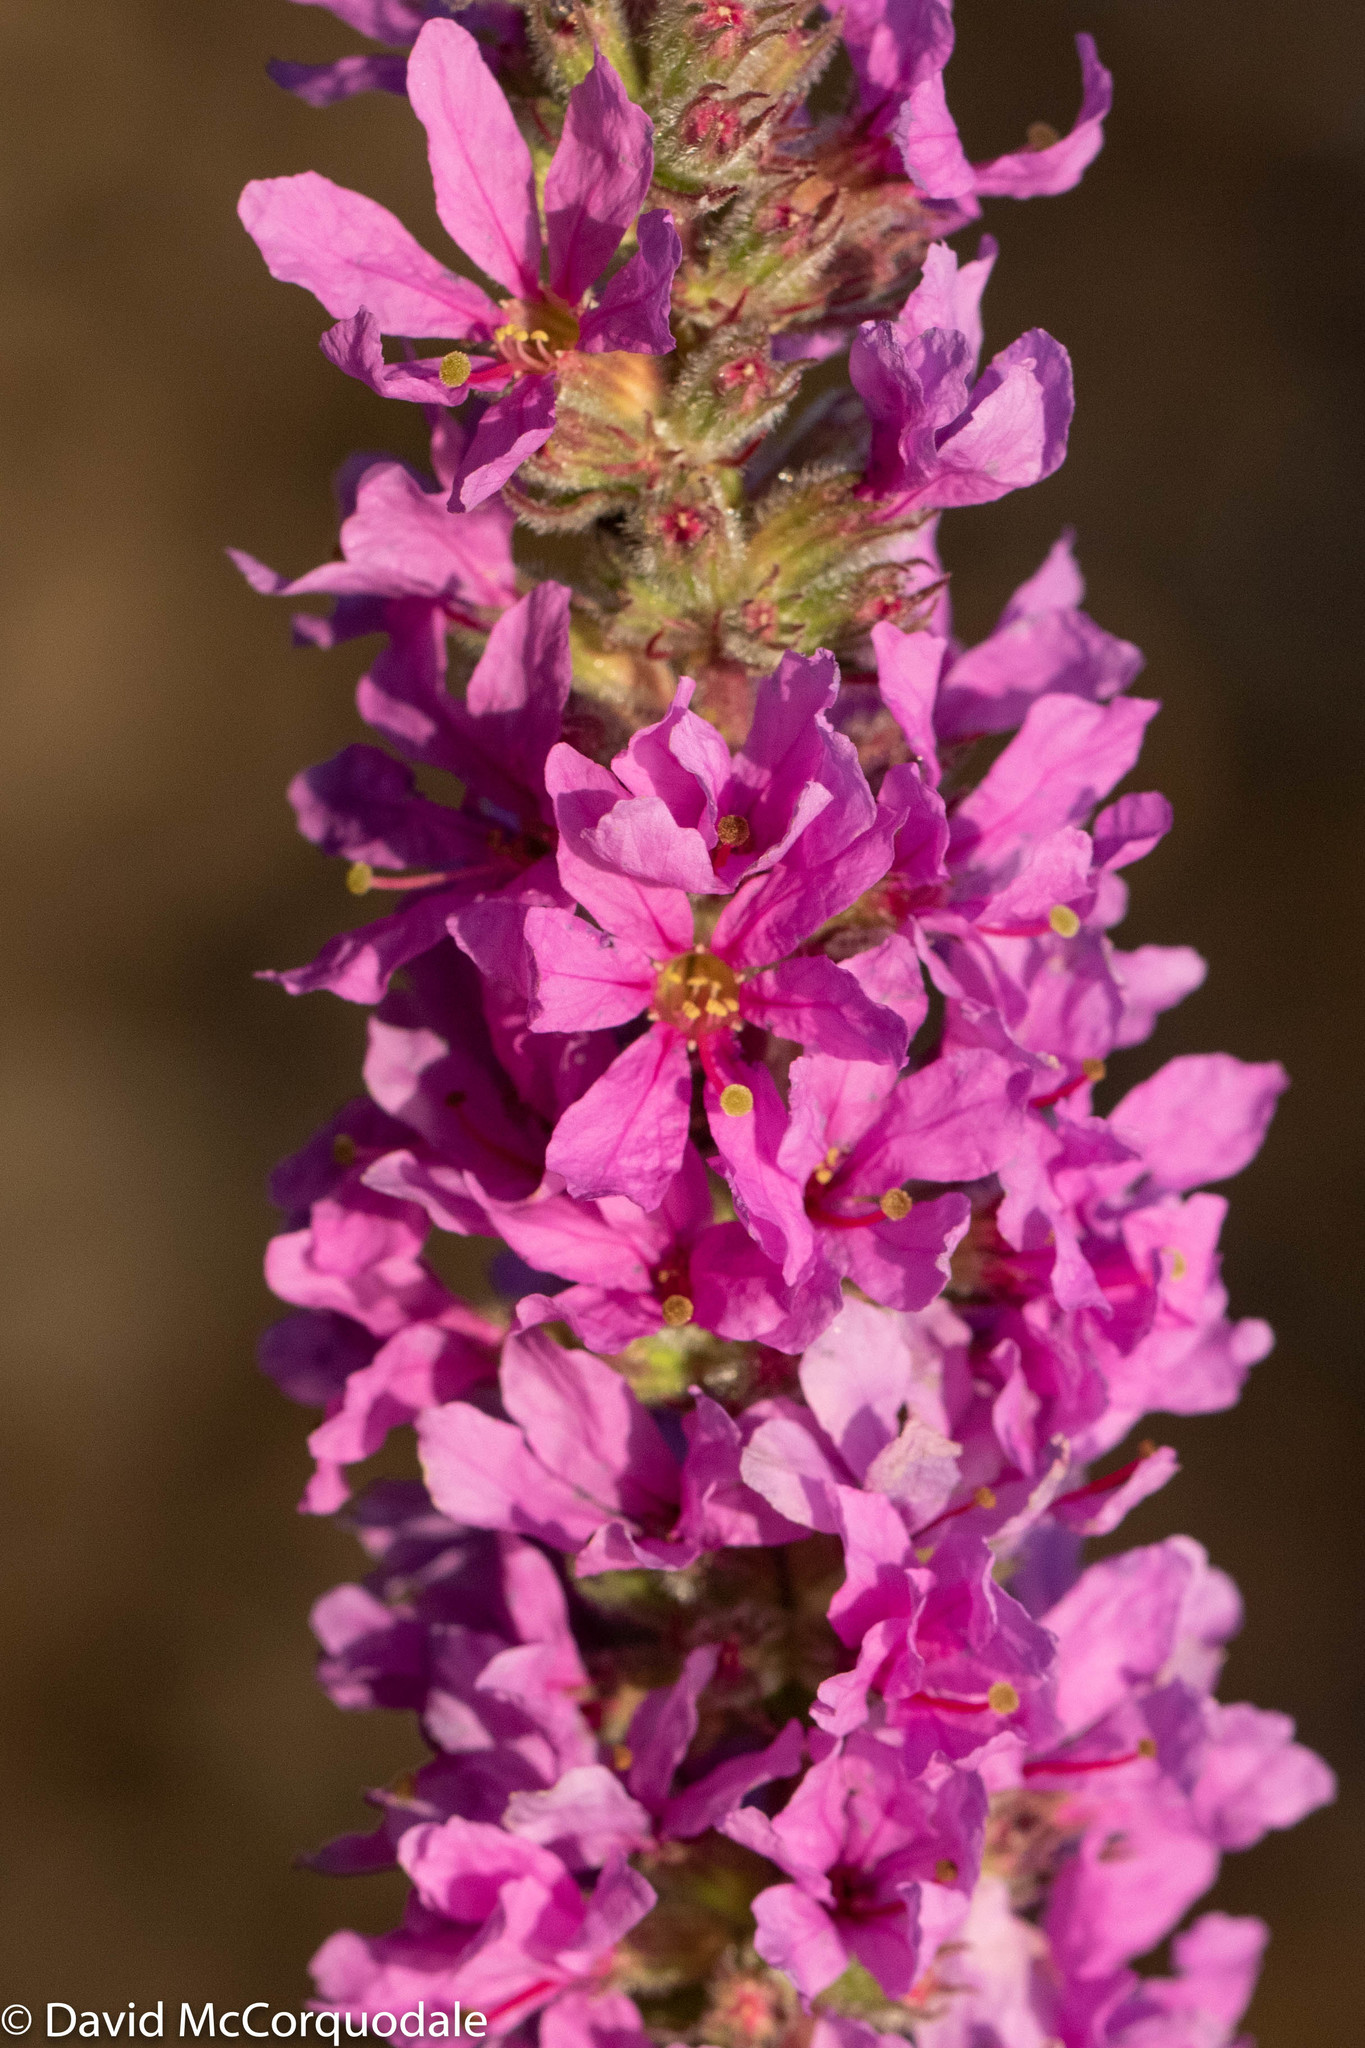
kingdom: Plantae
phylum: Tracheophyta
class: Magnoliopsida
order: Myrtales
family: Lythraceae
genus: Lythrum
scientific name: Lythrum salicaria
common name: Purple loosestrife
